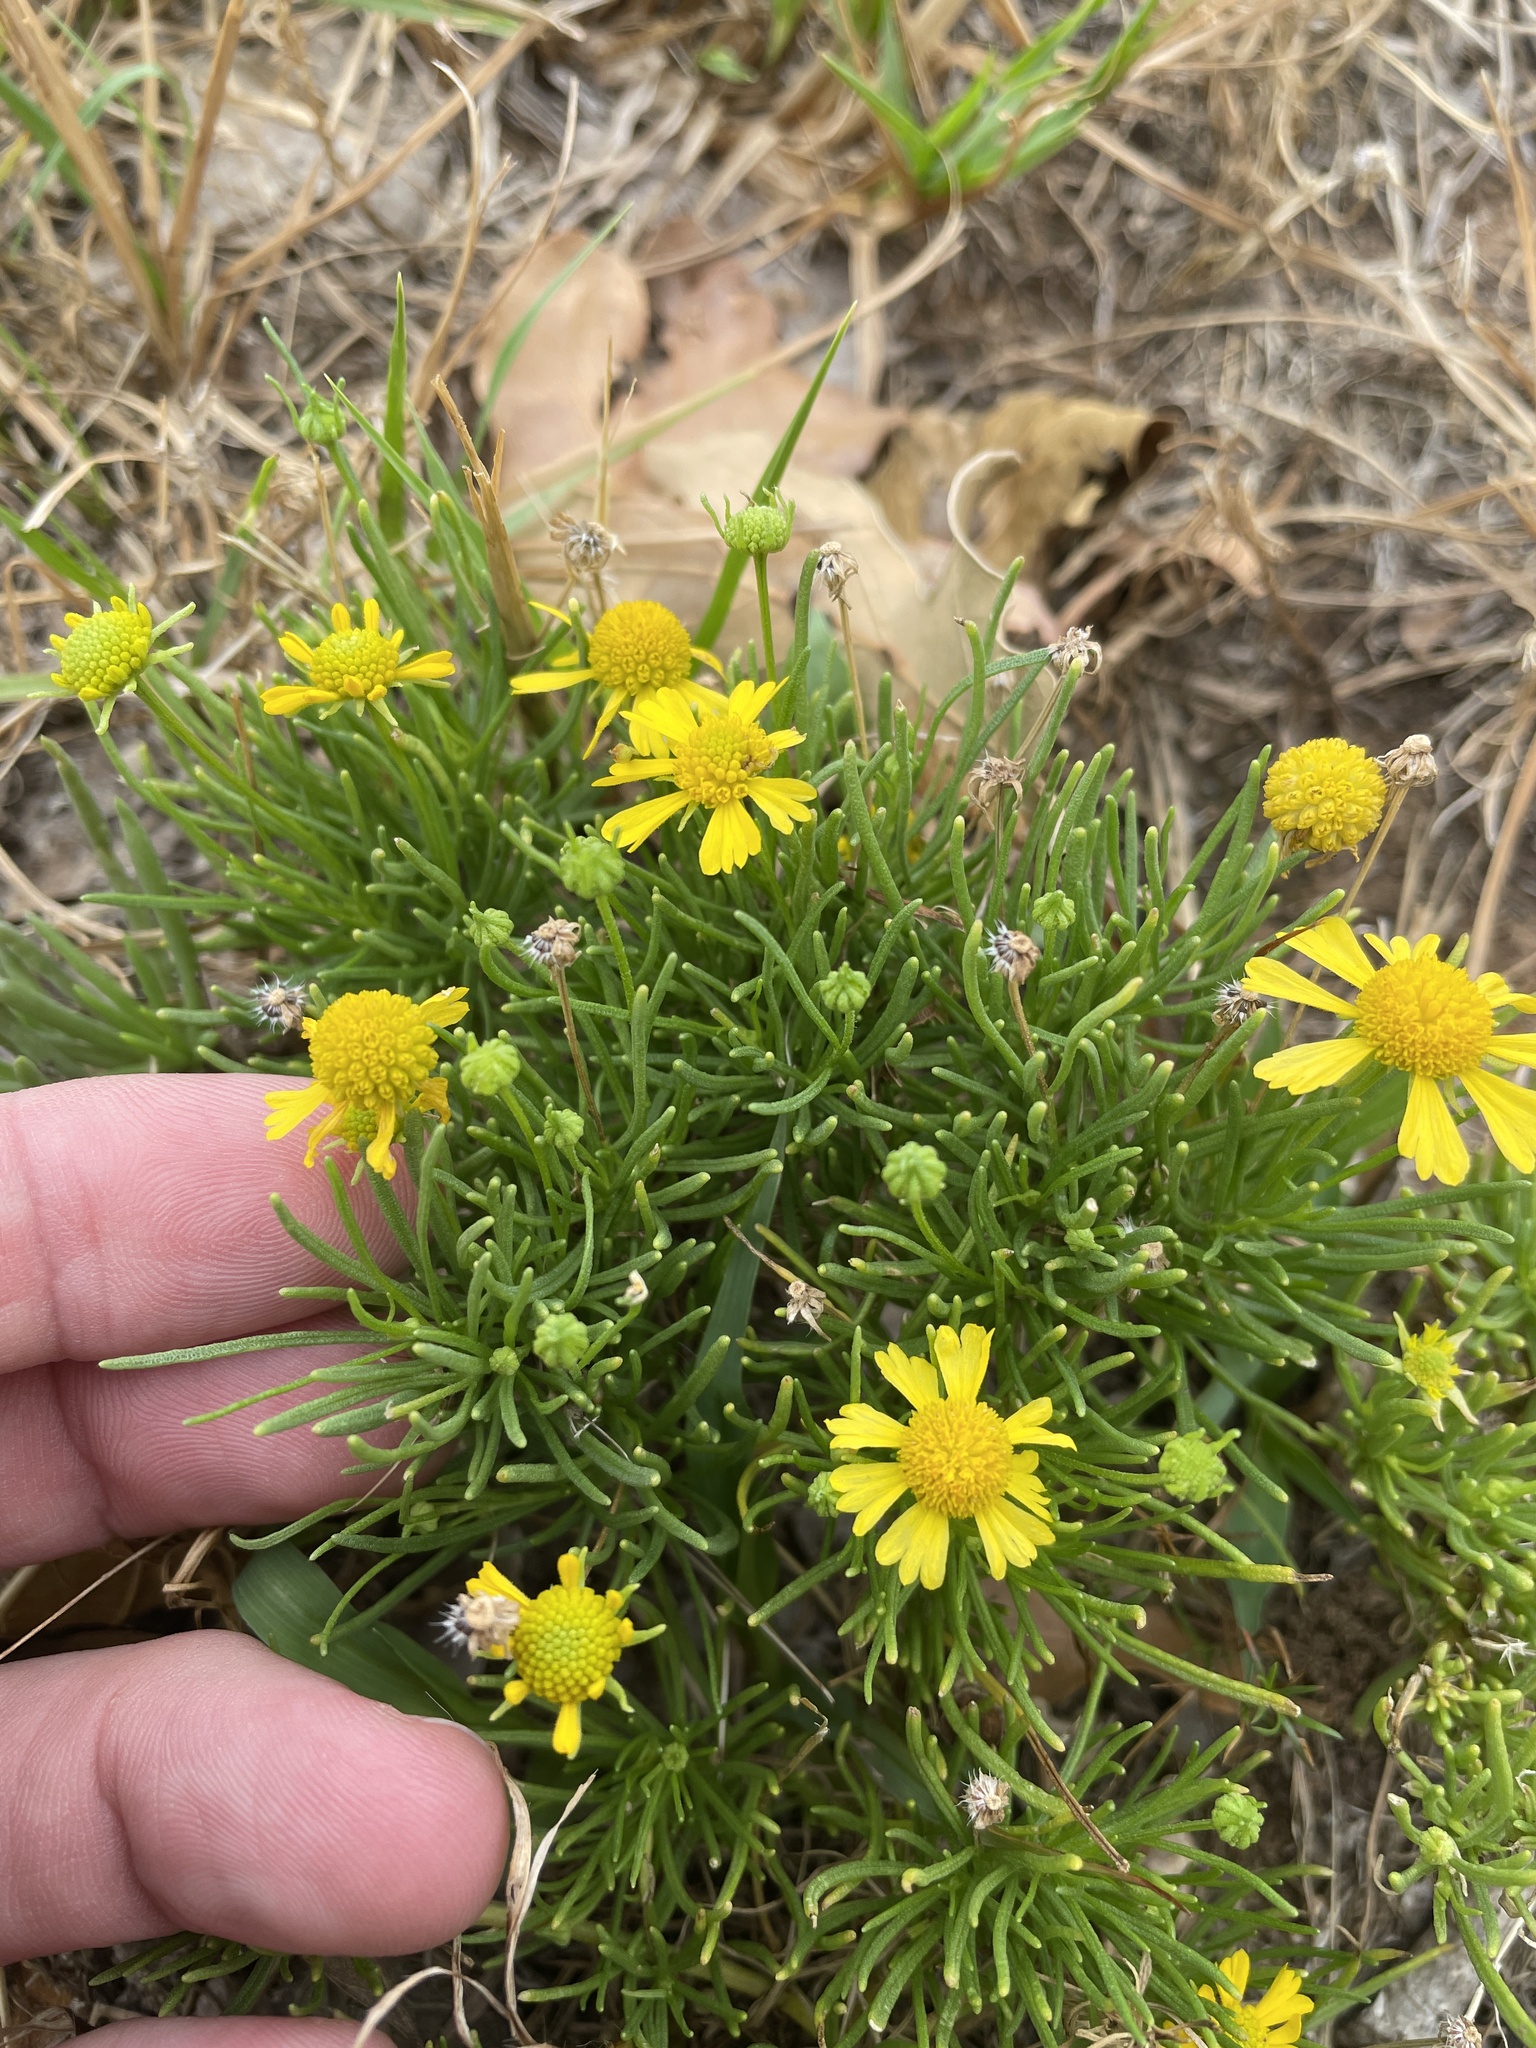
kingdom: Plantae
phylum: Tracheophyta
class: Magnoliopsida
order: Asterales
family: Asteraceae
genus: Helenium
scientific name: Helenium amarum
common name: Bitter sneezeweed
